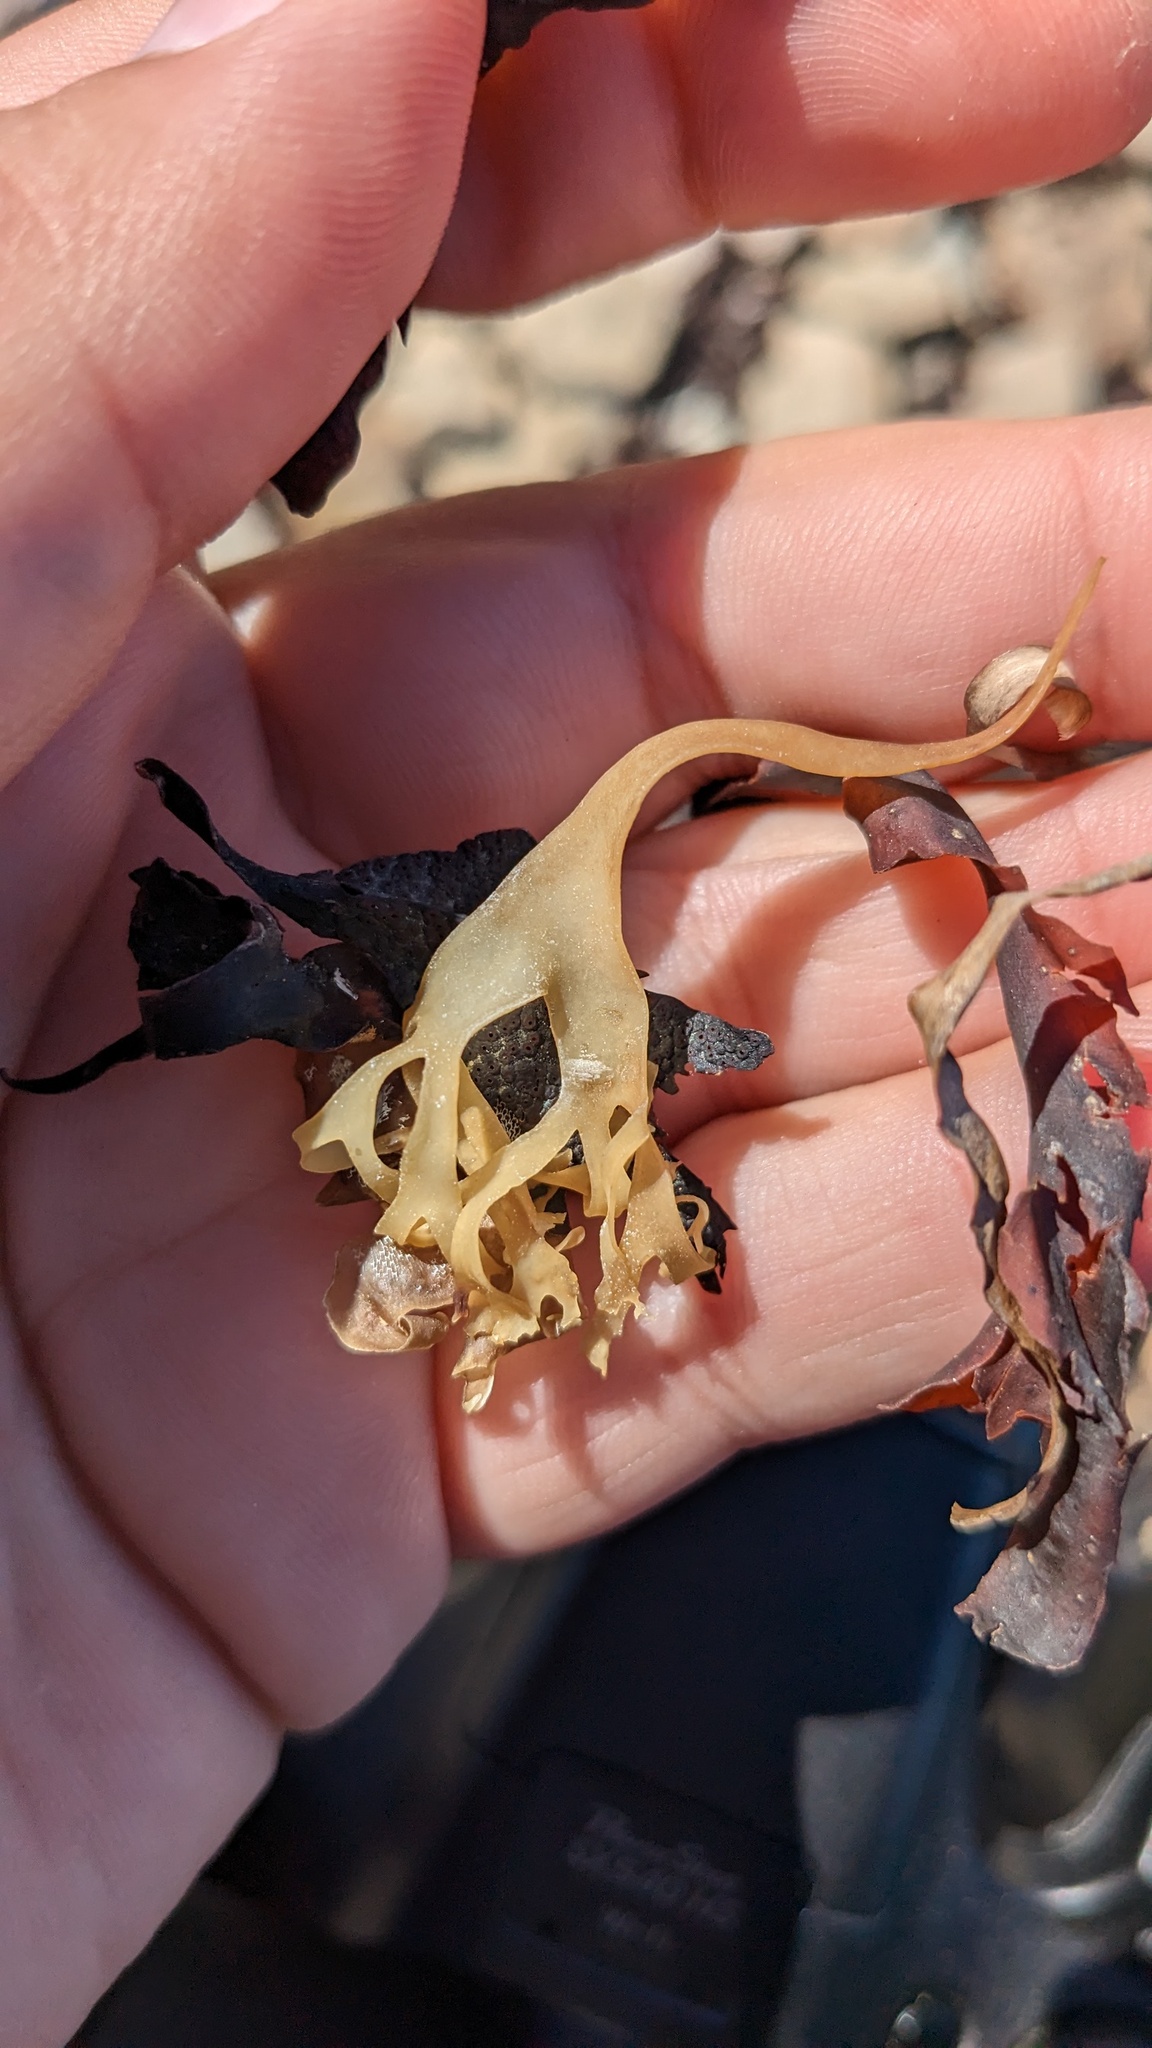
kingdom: Plantae
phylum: Rhodophyta
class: Florideophyceae
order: Gigartinales
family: Gigartinaceae
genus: Chondrus
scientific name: Chondrus crispus
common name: Carrageen
